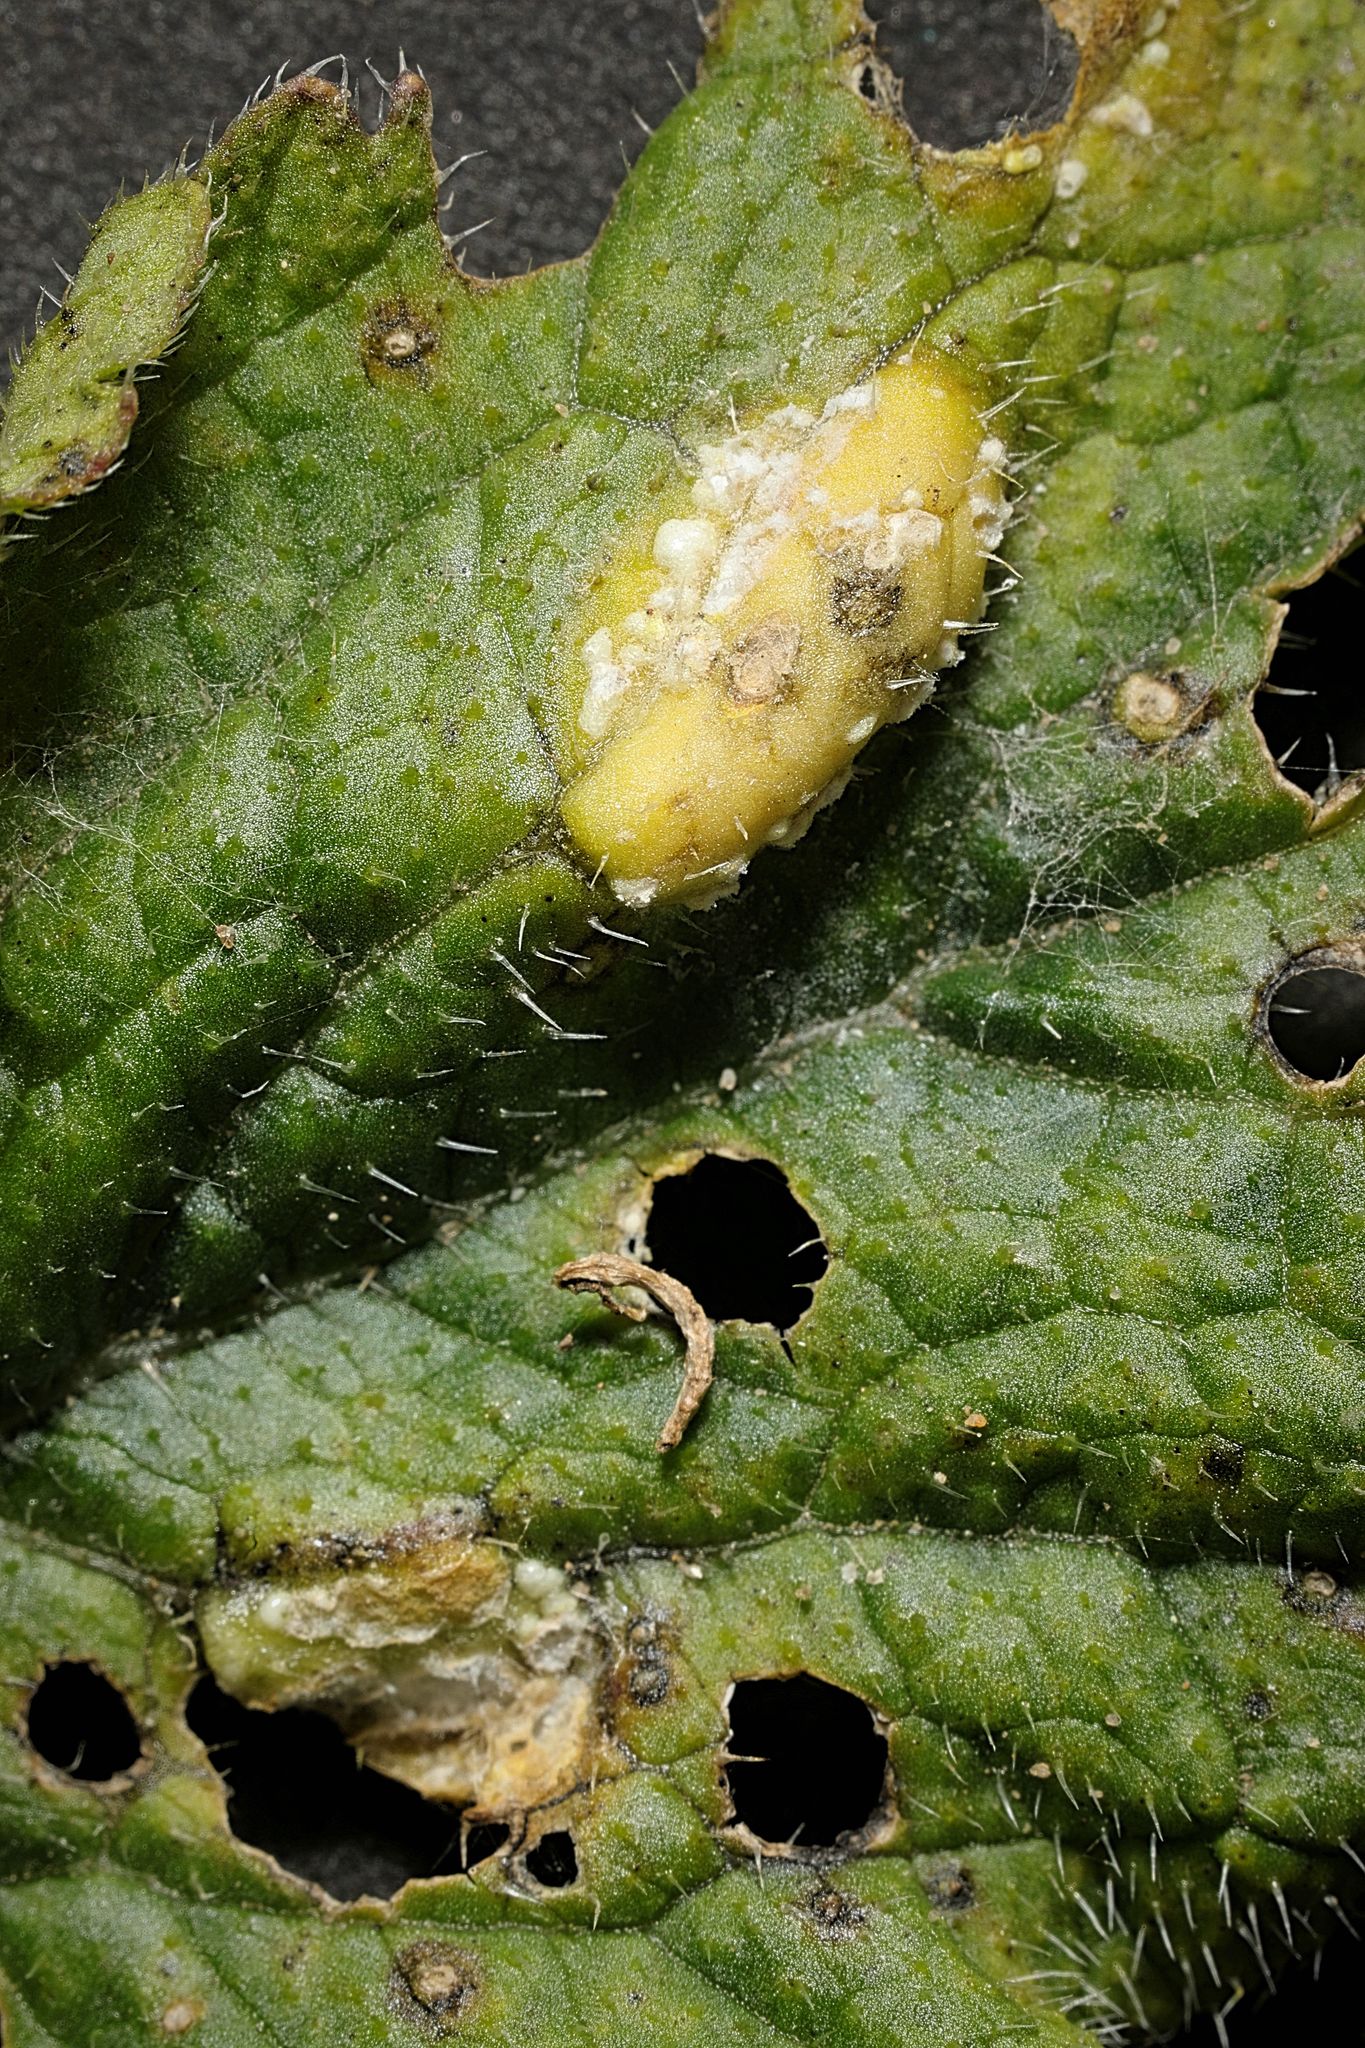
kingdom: Chromista
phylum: Oomycota
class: Peronosporea
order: Albuginales
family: Albuginaceae
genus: Albugo
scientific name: Albugo candida
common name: Crucifer white blister
